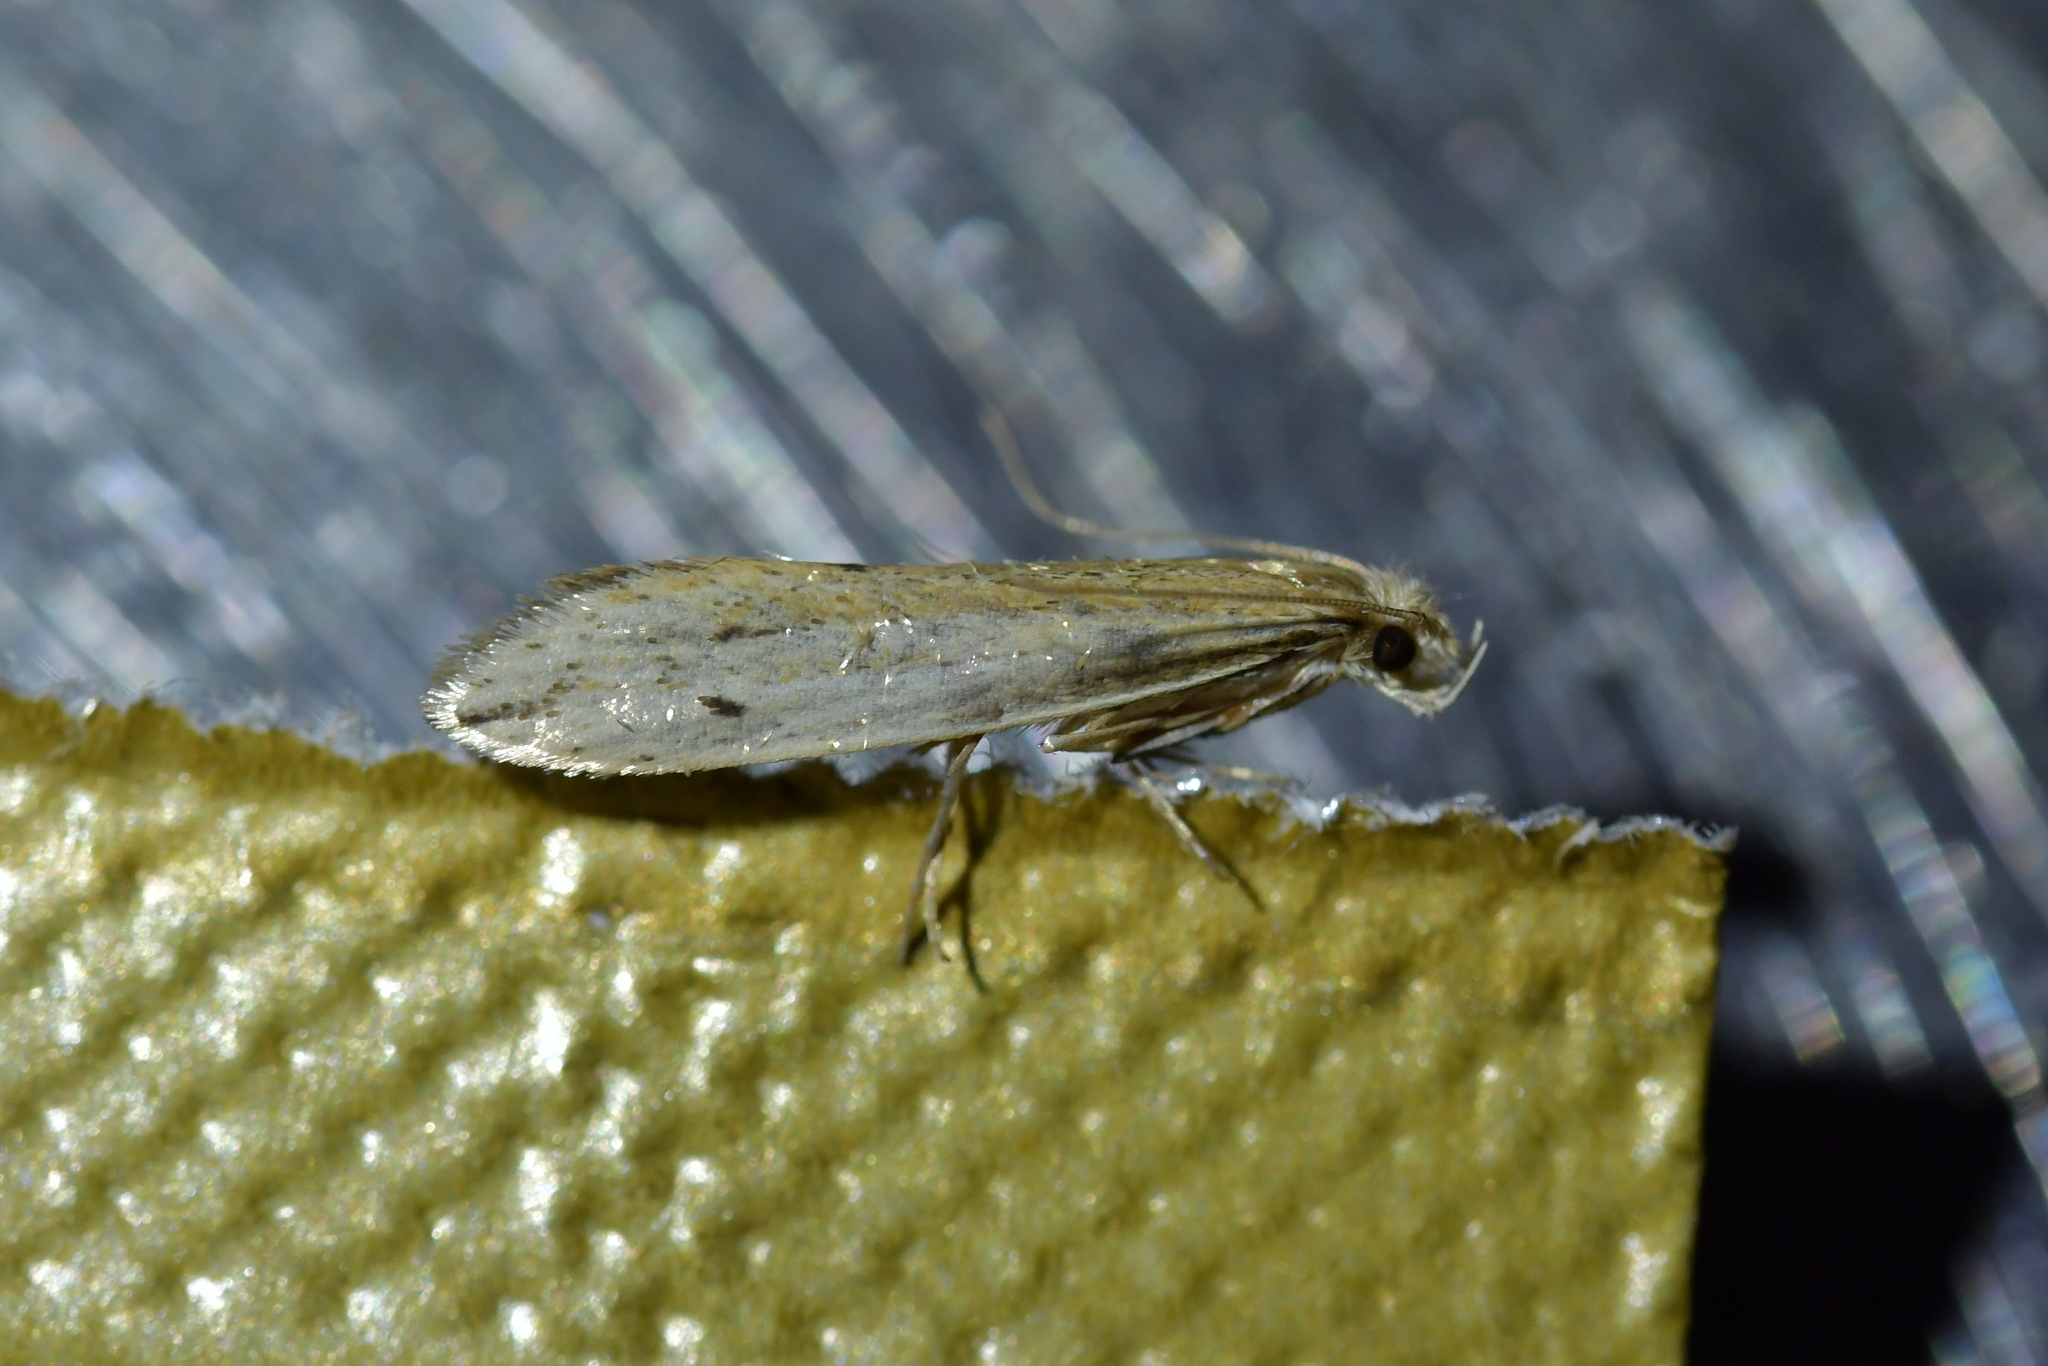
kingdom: Animalia
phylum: Arthropoda
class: Insecta
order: Lepidoptera
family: Tineidae
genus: Prothinodes
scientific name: Prothinodes lutata
